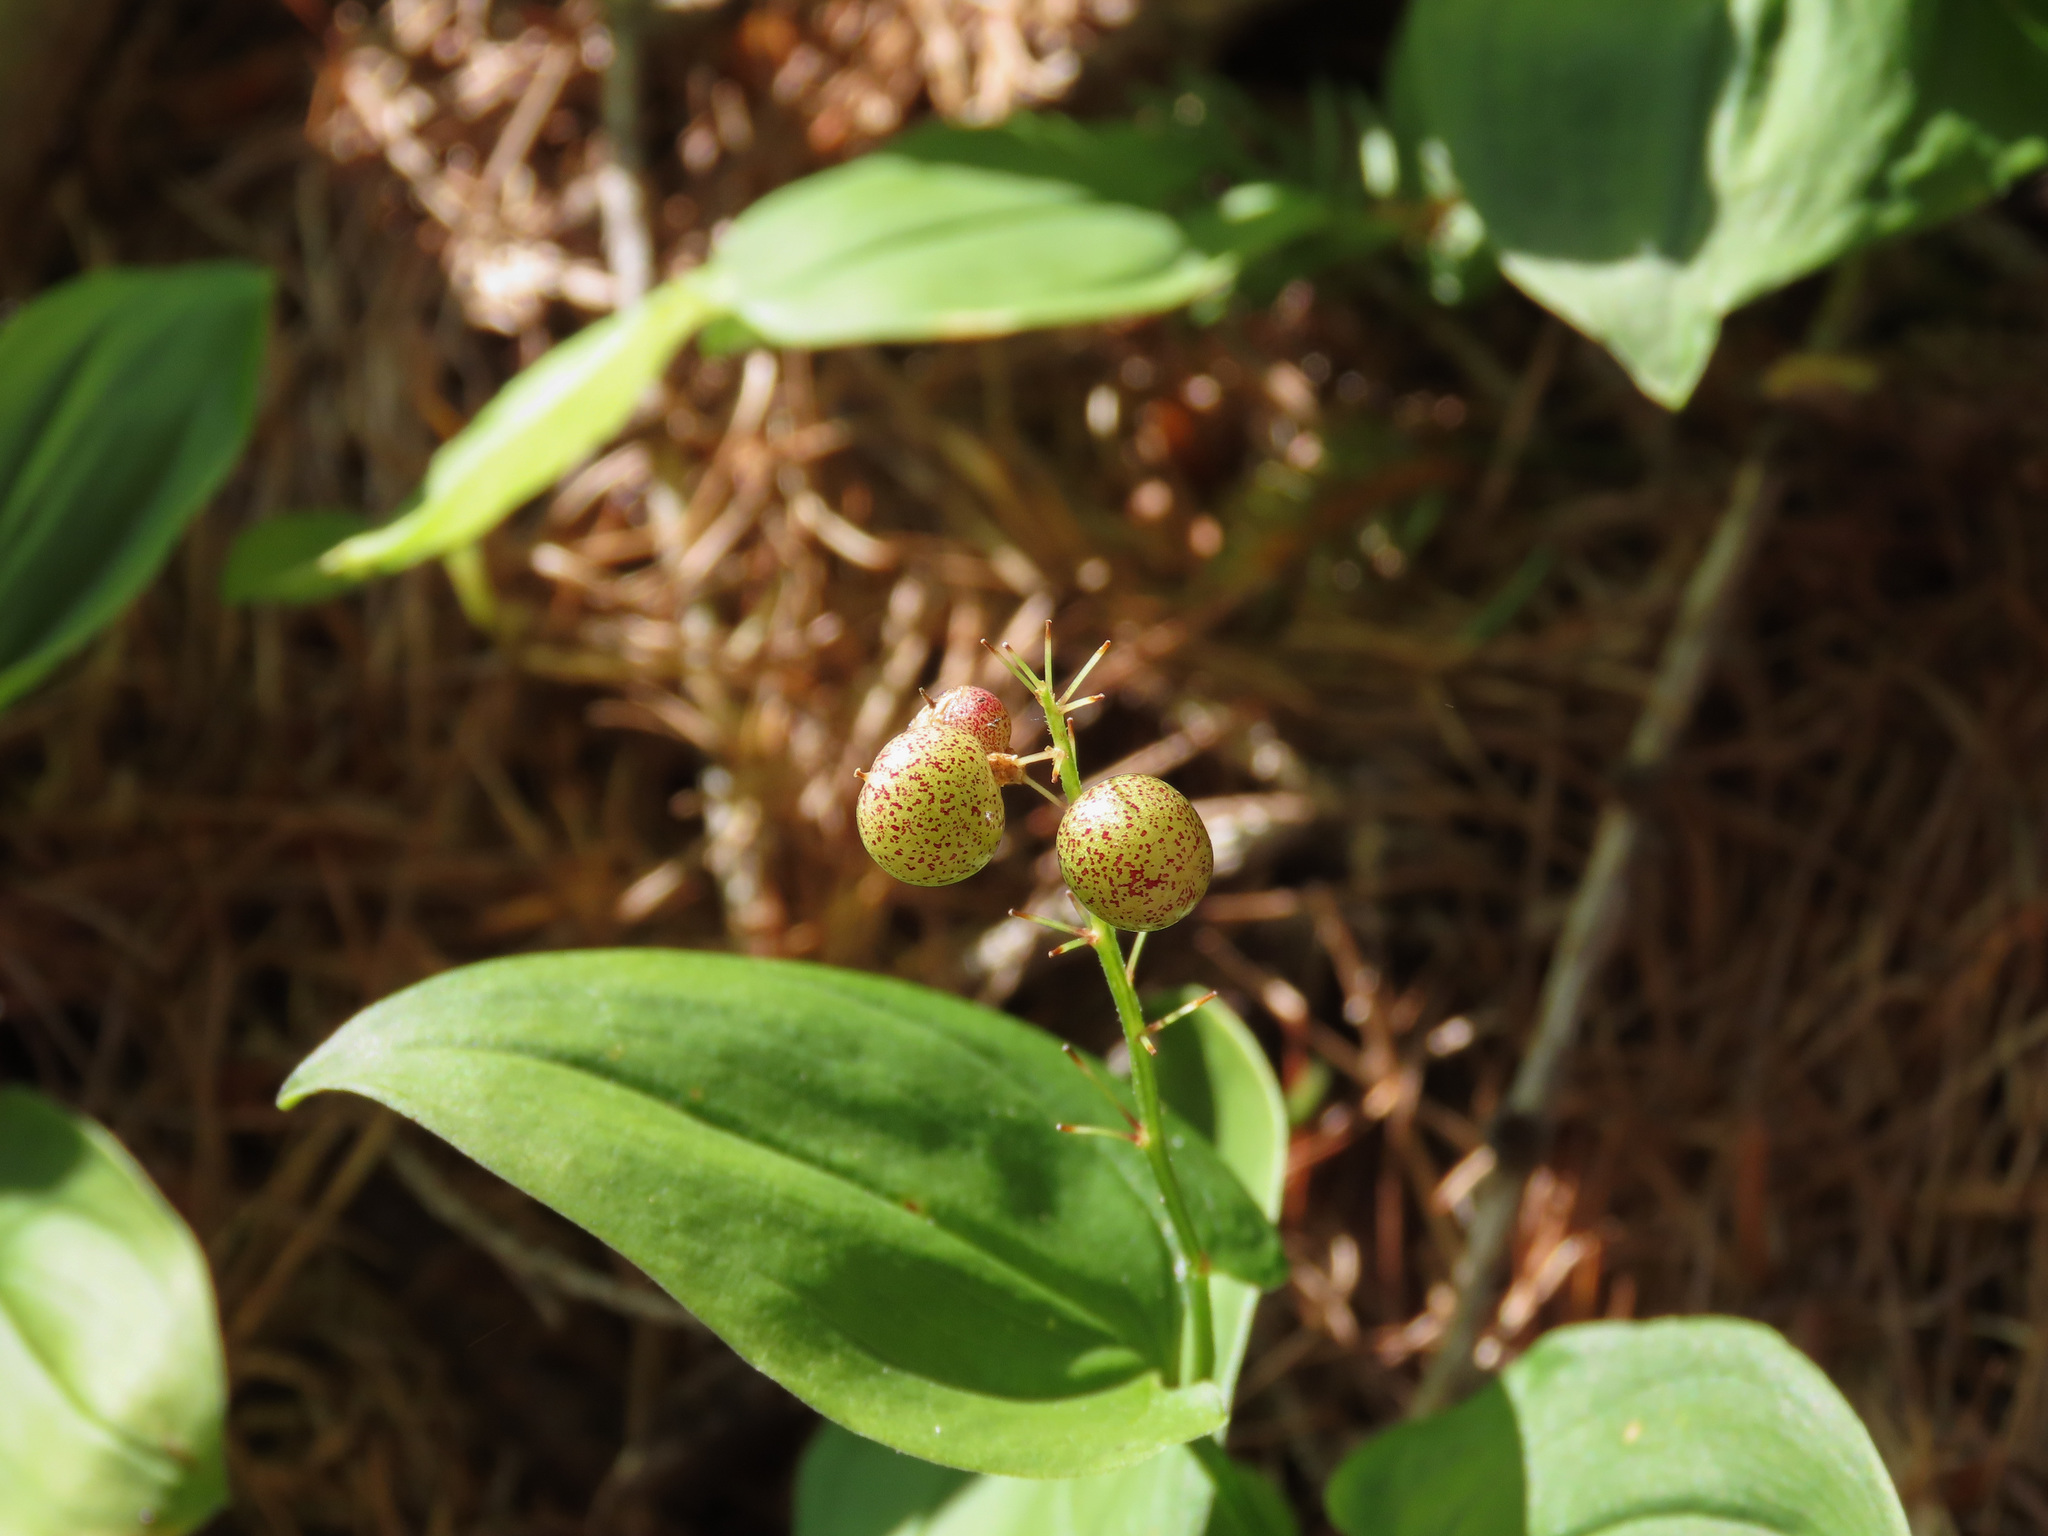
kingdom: Plantae
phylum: Tracheophyta
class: Liliopsida
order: Asparagales
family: Asparagaceae
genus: Maianthemum
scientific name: Maianthemum bifolium
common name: May lily
